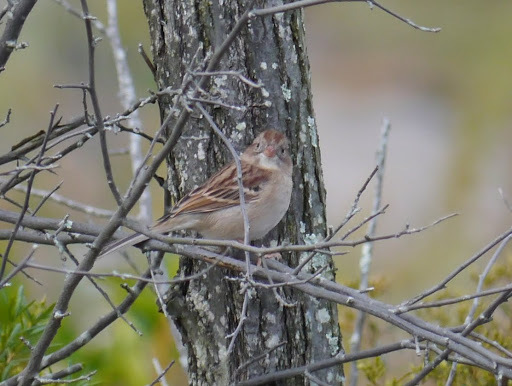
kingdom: Animalia
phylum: Chordata
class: Aves
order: Passeriformes
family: Passerellidae
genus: Spizella
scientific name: Spizella pusilla
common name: Field sparrow
